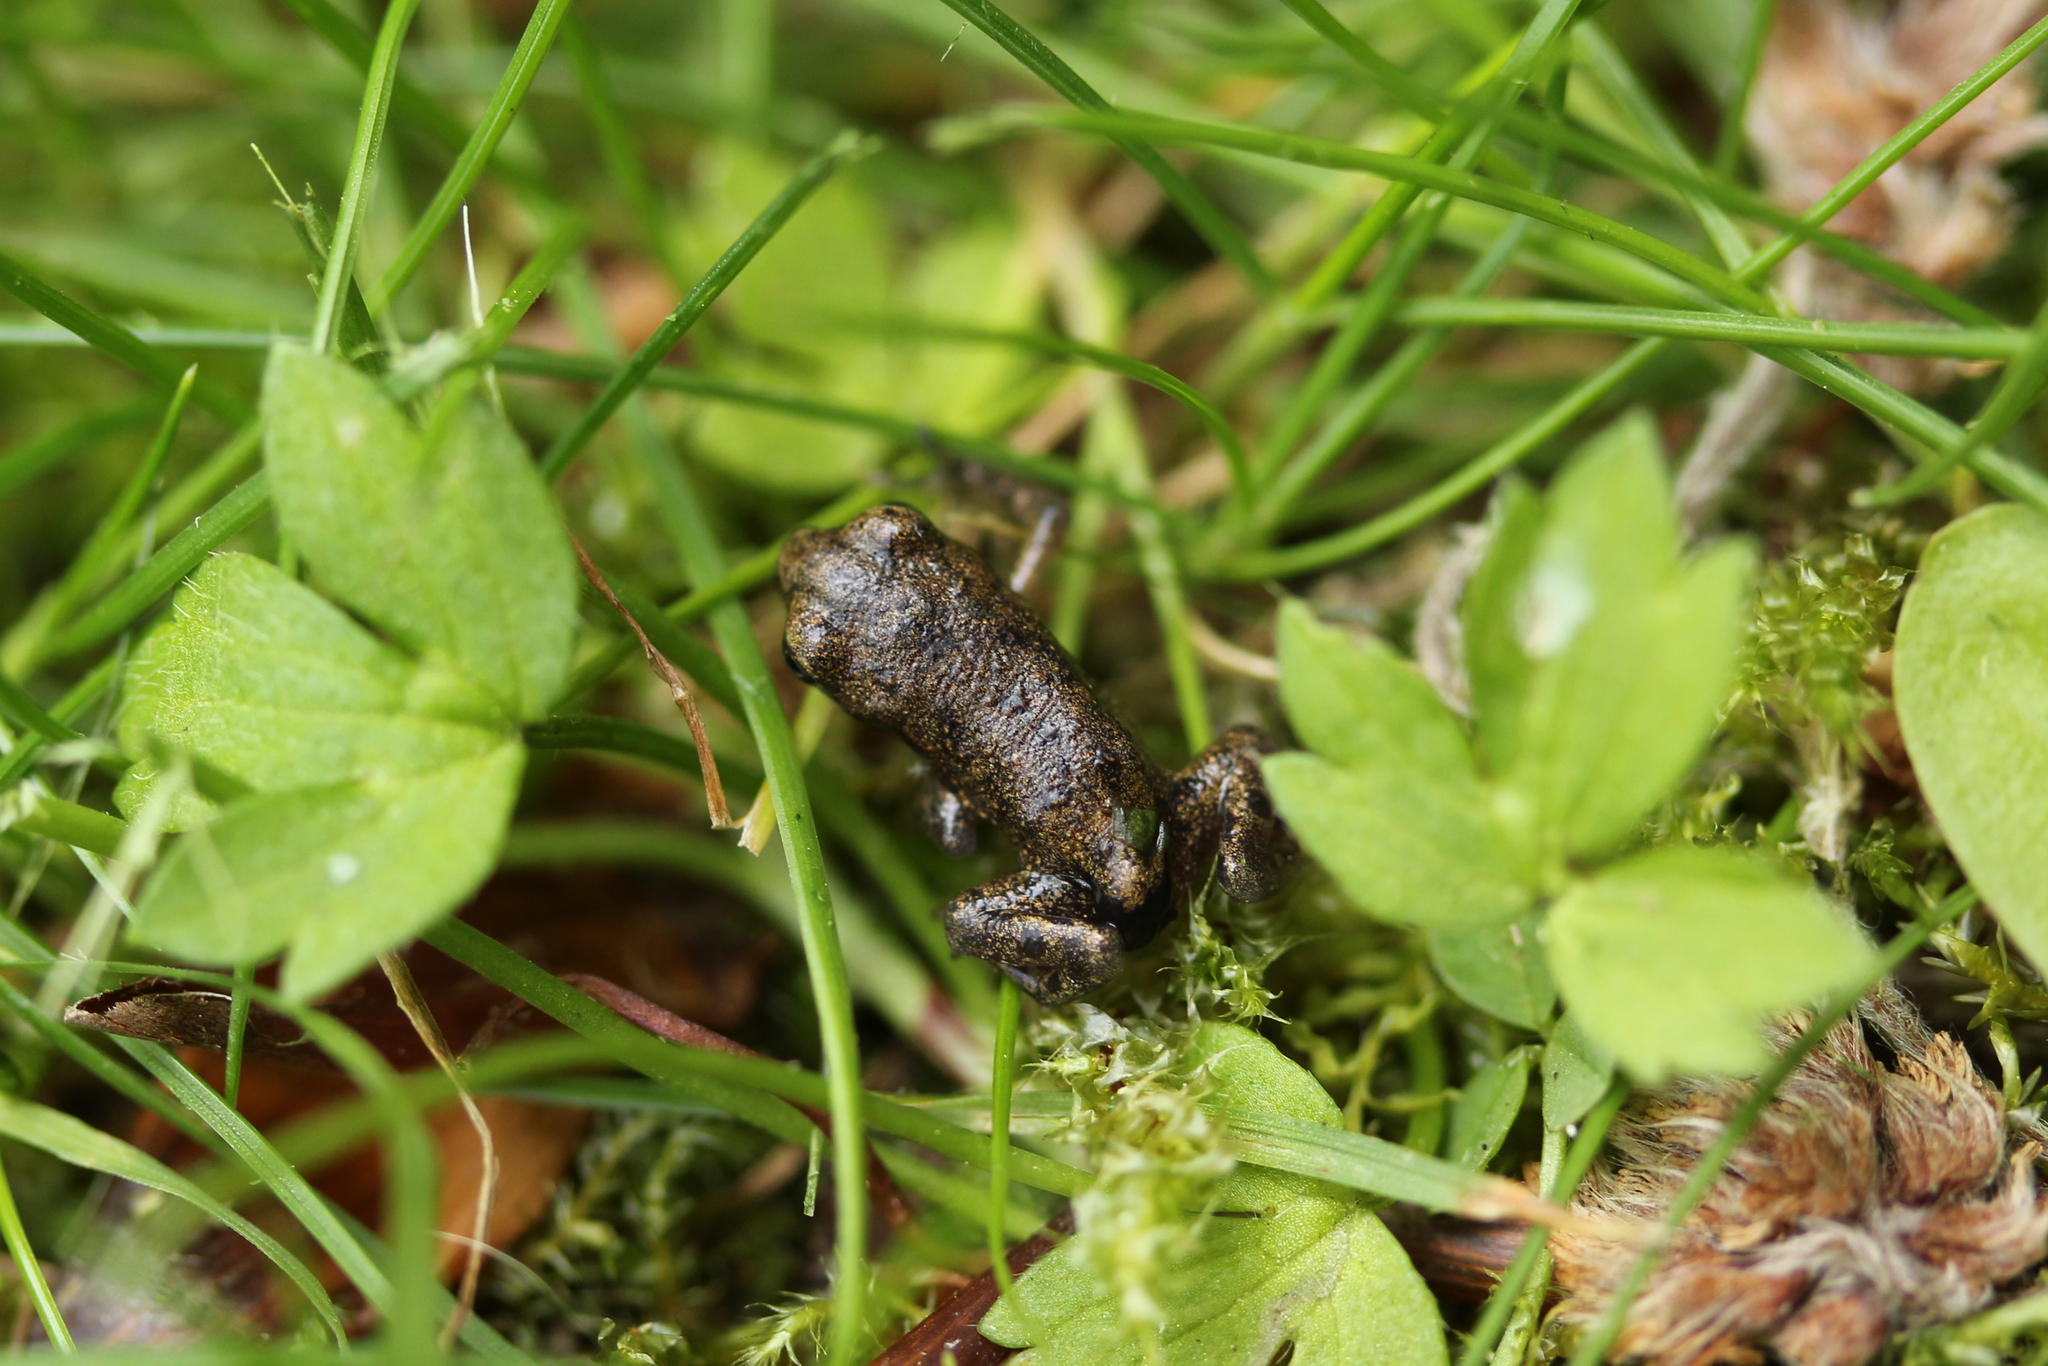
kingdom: Animalia
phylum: Chordata
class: Amphibia
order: Anura
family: Bufonidae
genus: Bufo
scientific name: Bufo bufo
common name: Common toad
